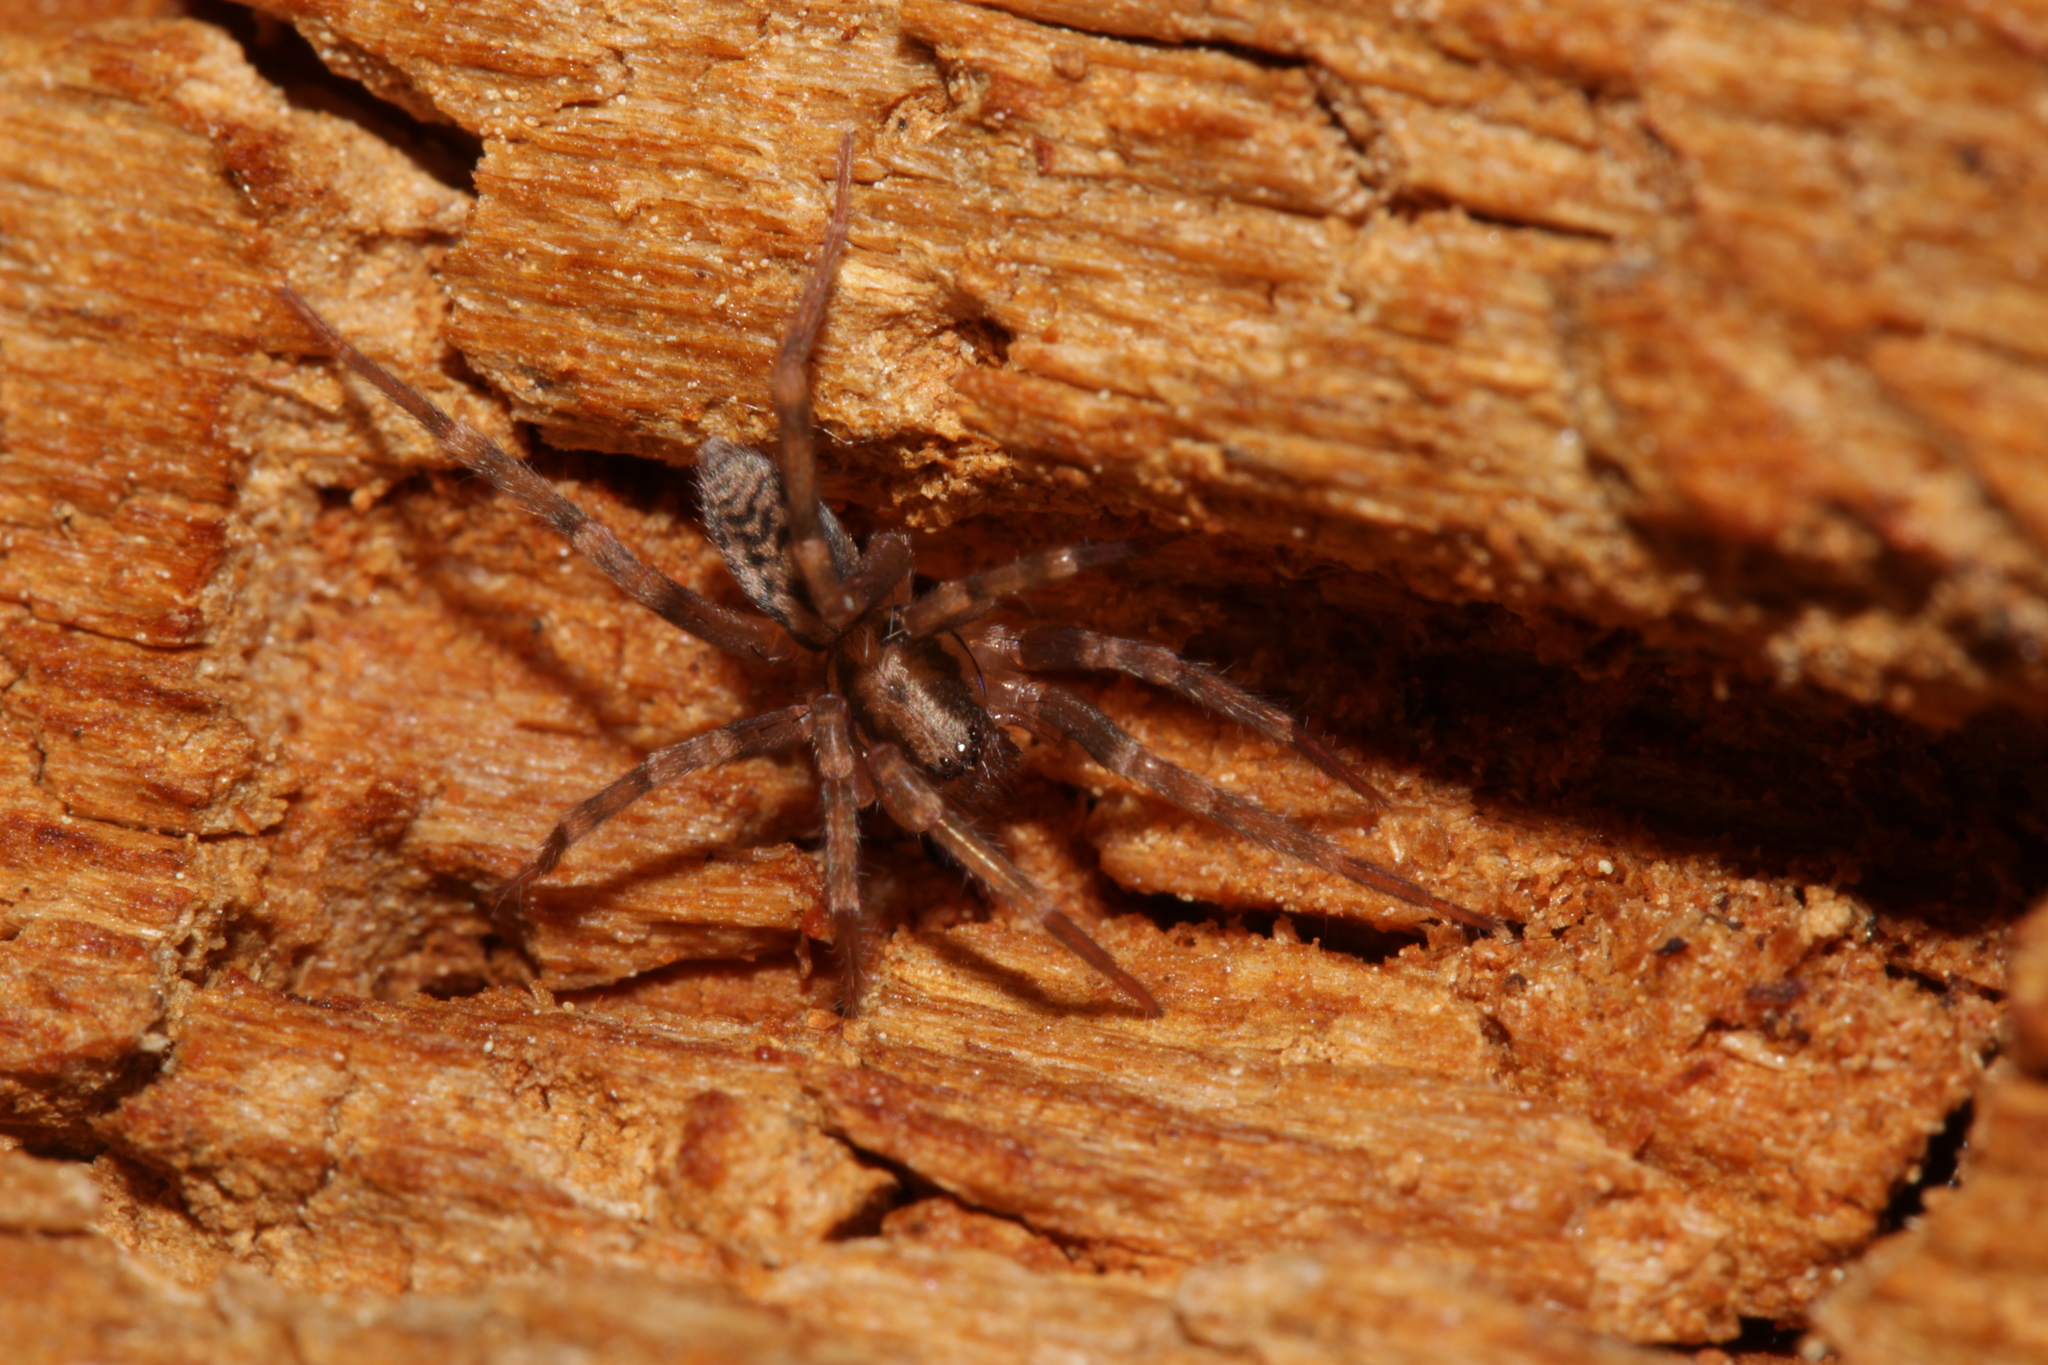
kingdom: Animalia
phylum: Arthropoda
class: Arachnida
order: Araneae
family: Liocranidae
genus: Liocranum
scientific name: Liocranum rupicola
